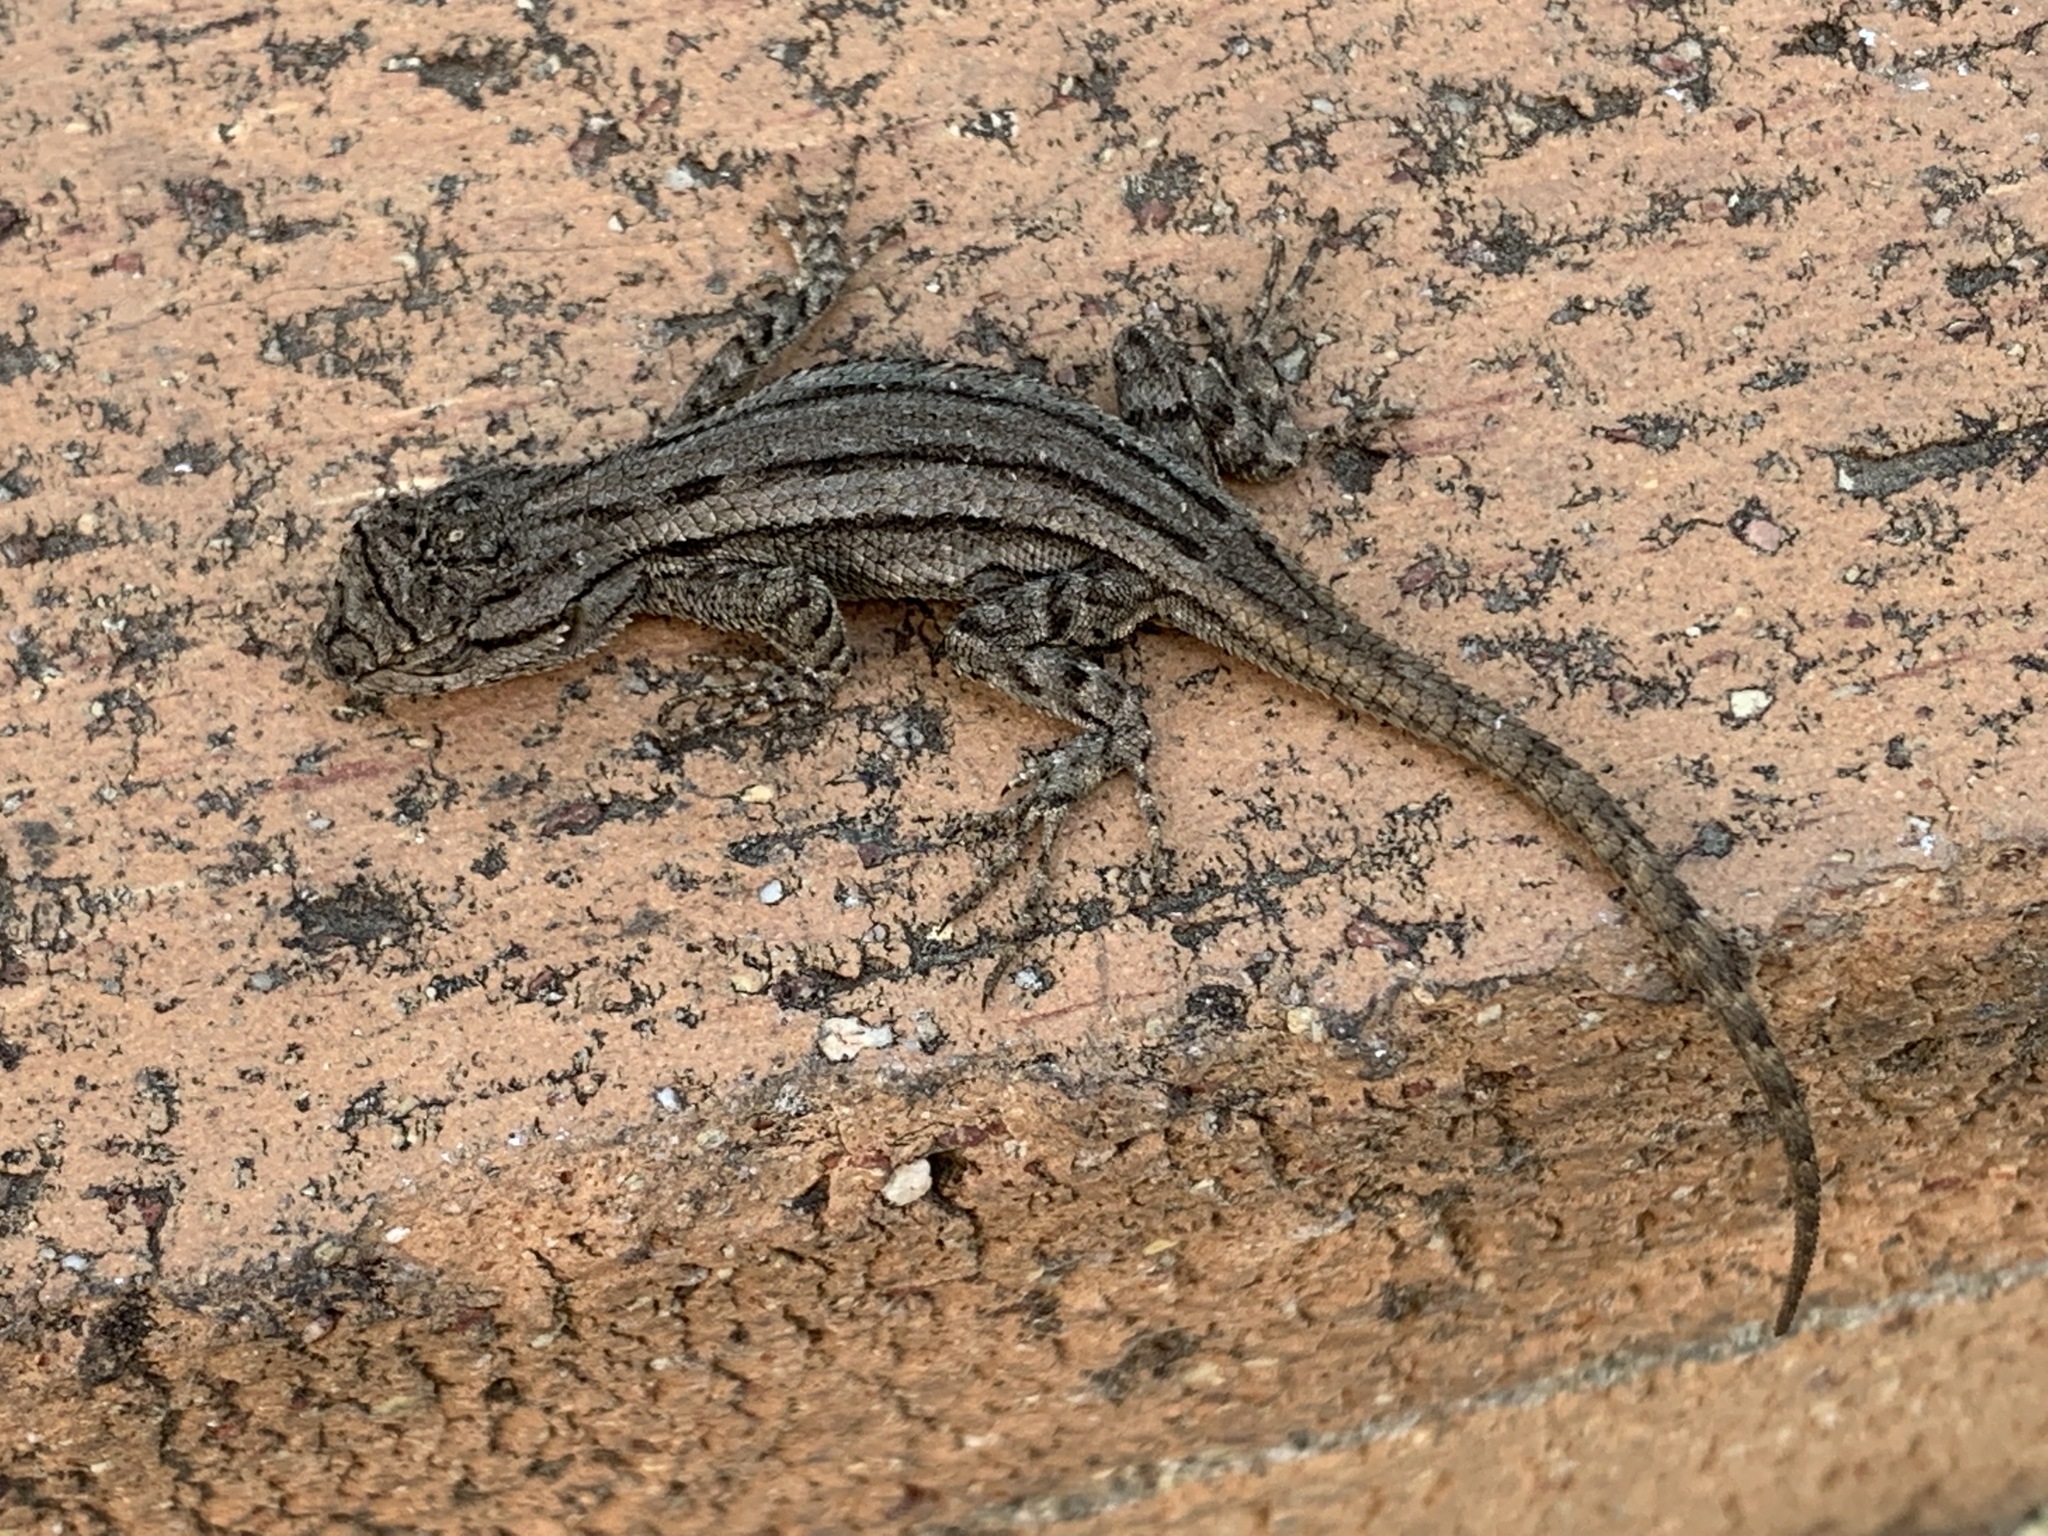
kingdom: Animalia
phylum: Chordata
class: Squamata
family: Phrynosomatidae
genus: Sceloporus
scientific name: Sceloporus occidentalis
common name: Western fence lizard
